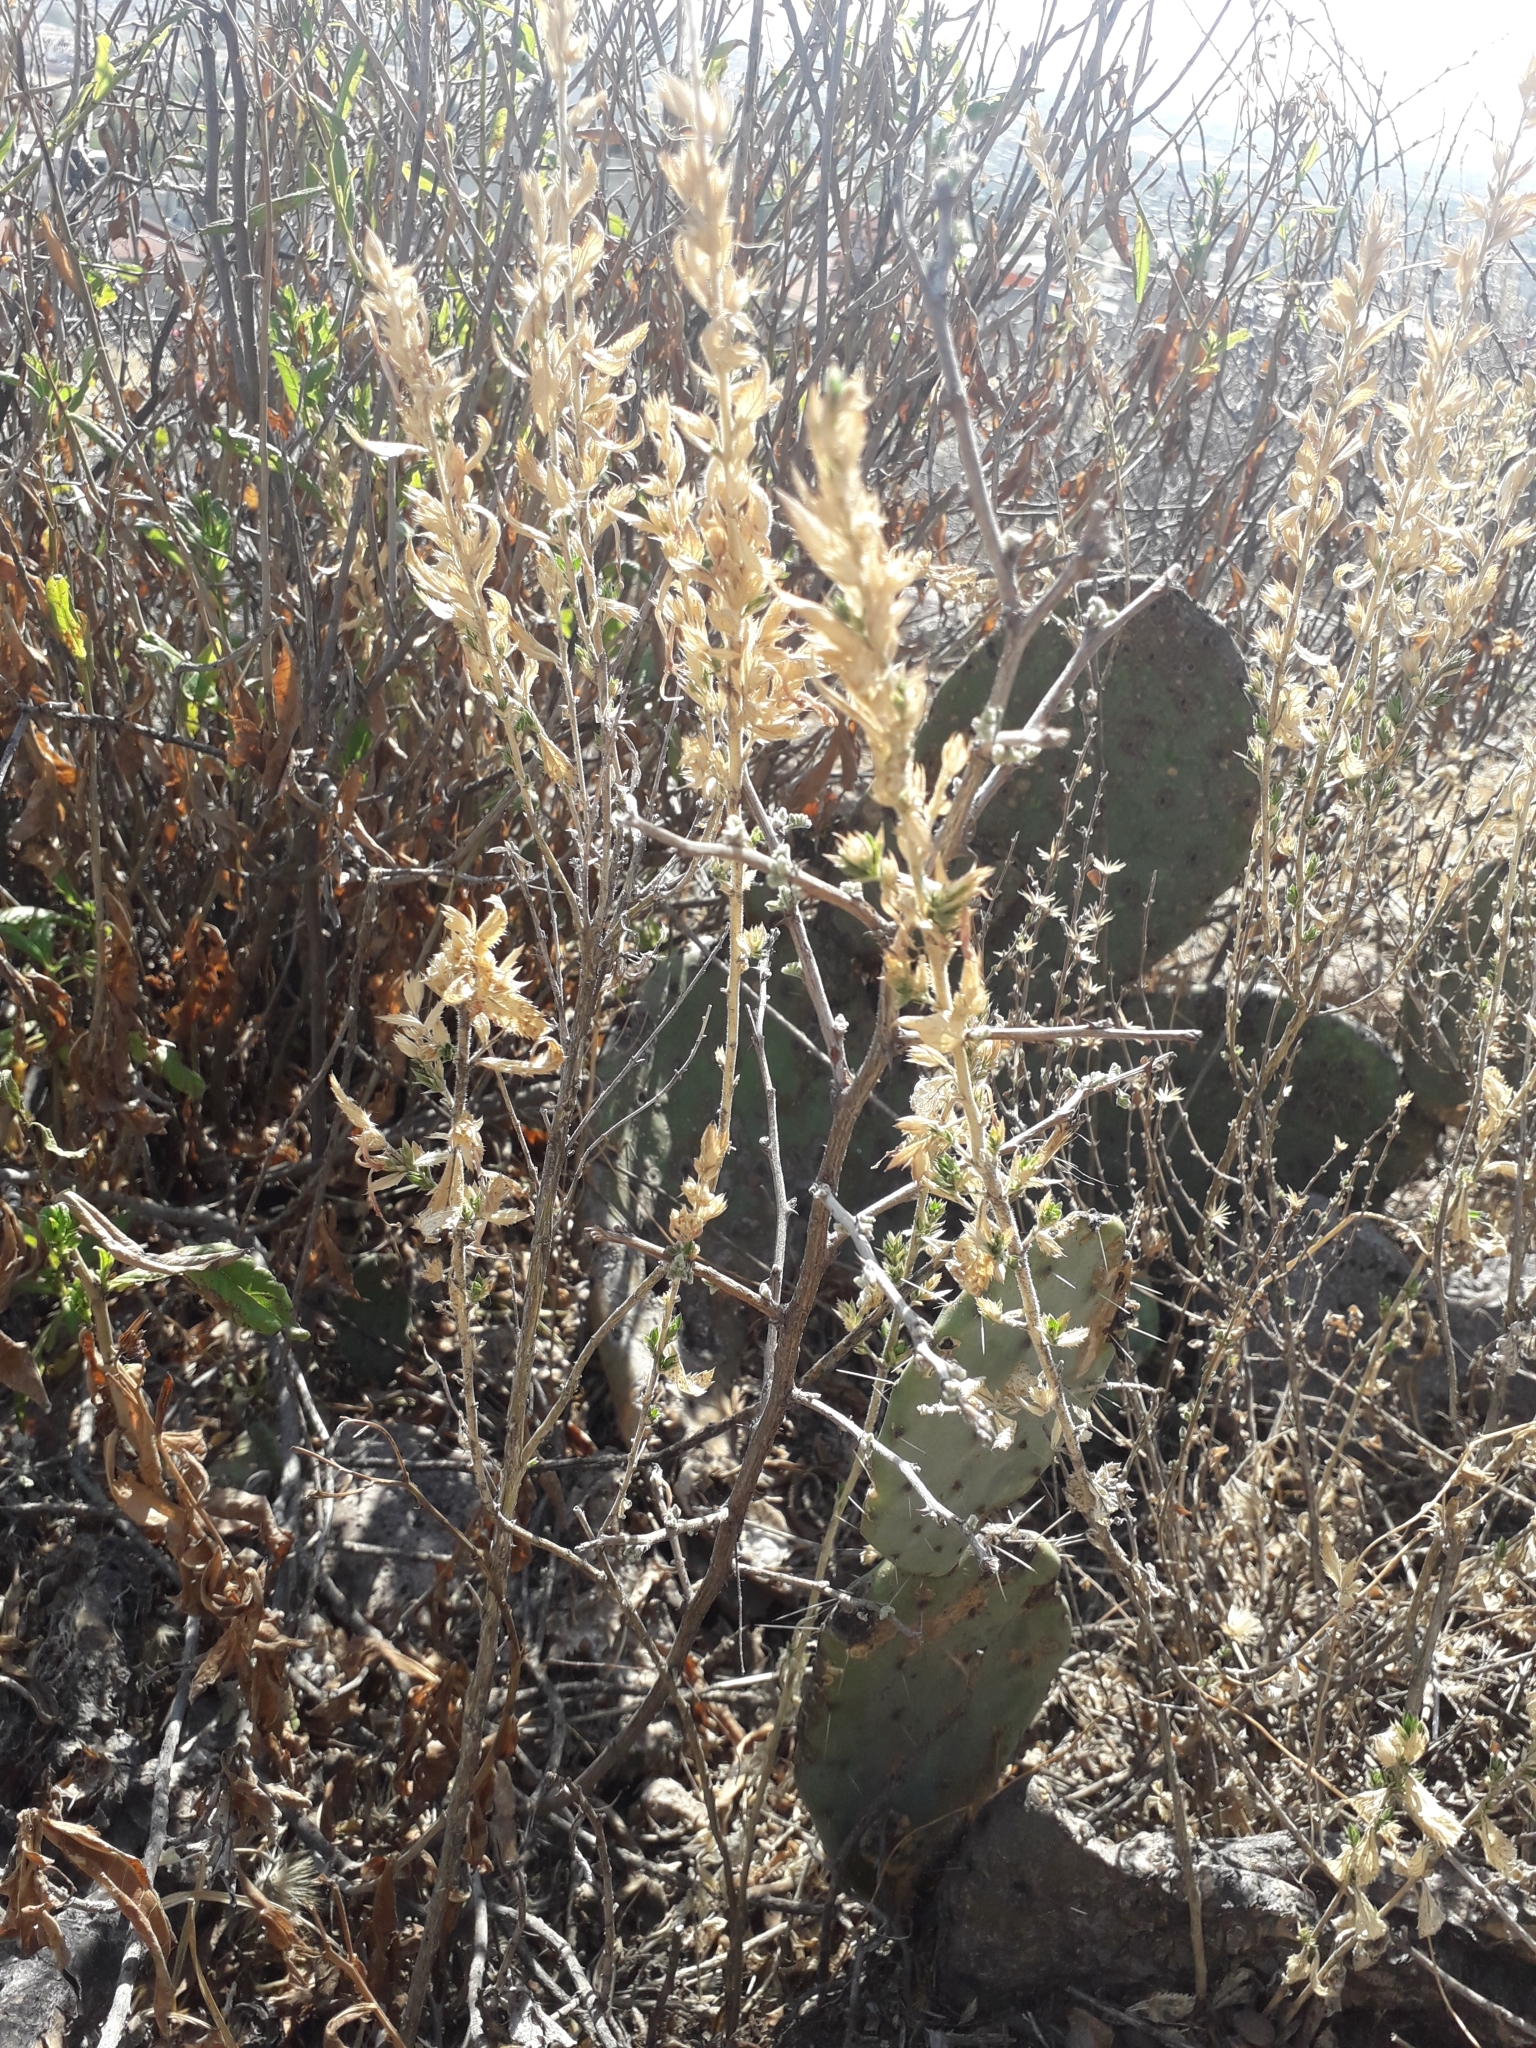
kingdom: Plantae
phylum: Tracheophyta
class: Magnoliopsida
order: Ericales
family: Polemoniaceae
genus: Loeselia
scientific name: Loeselia mexicana
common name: Mexican false calico
